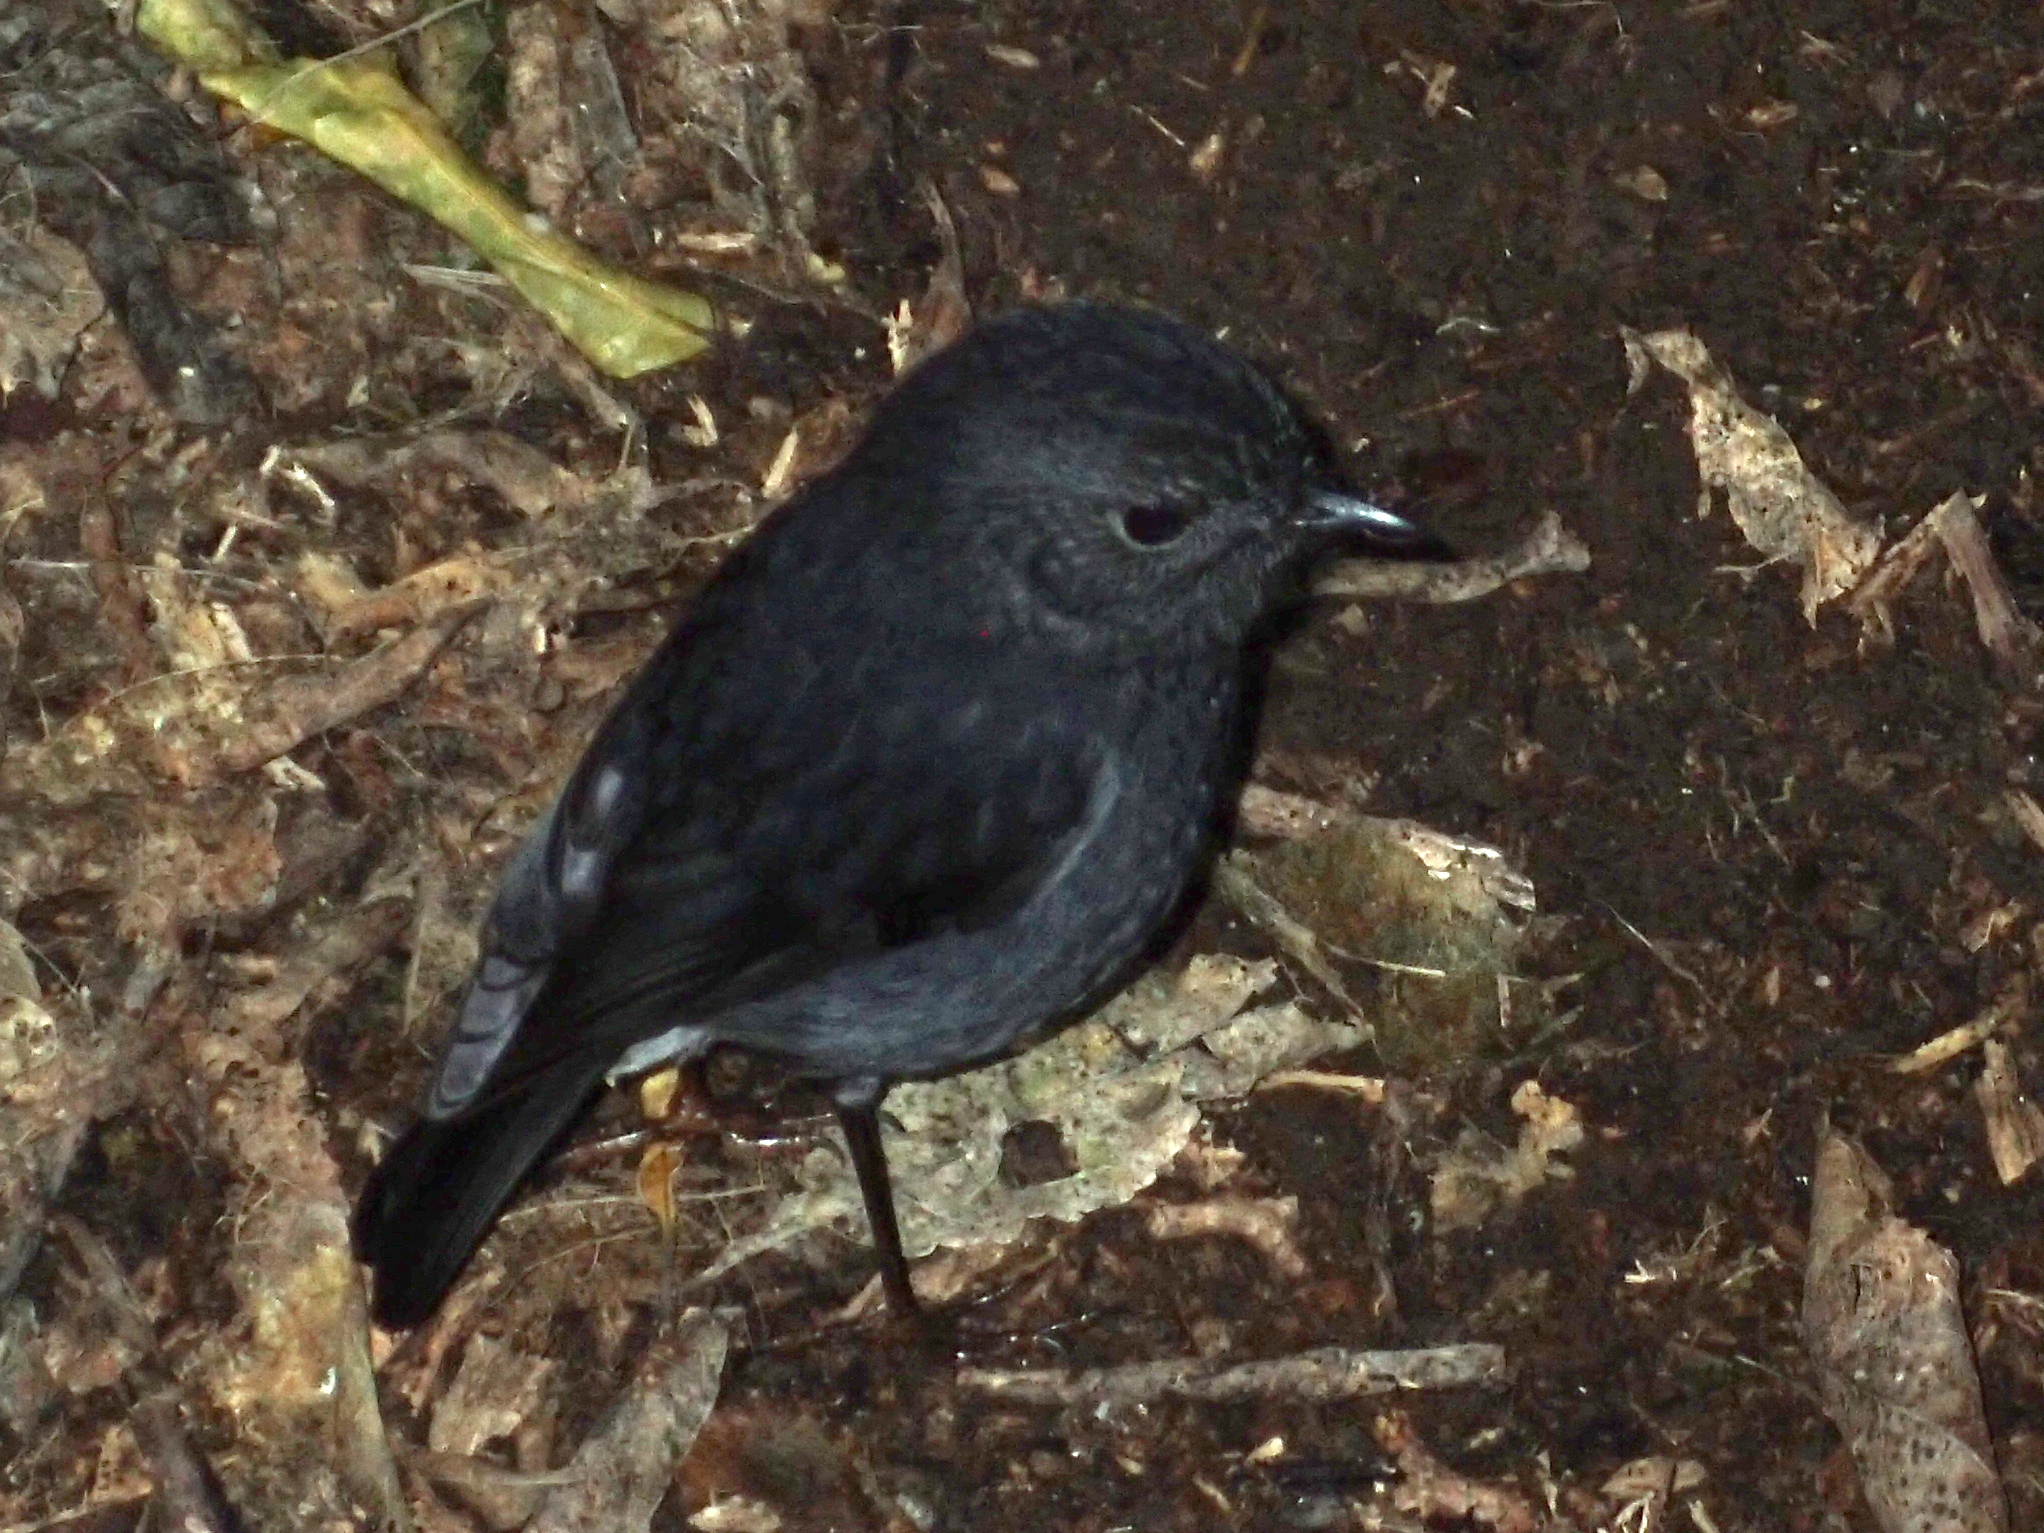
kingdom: Animalia
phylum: Chordata
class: Aves
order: Passeriformes
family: Petroicidae
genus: Petroica
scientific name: Petroica australis
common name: New zealand robin
